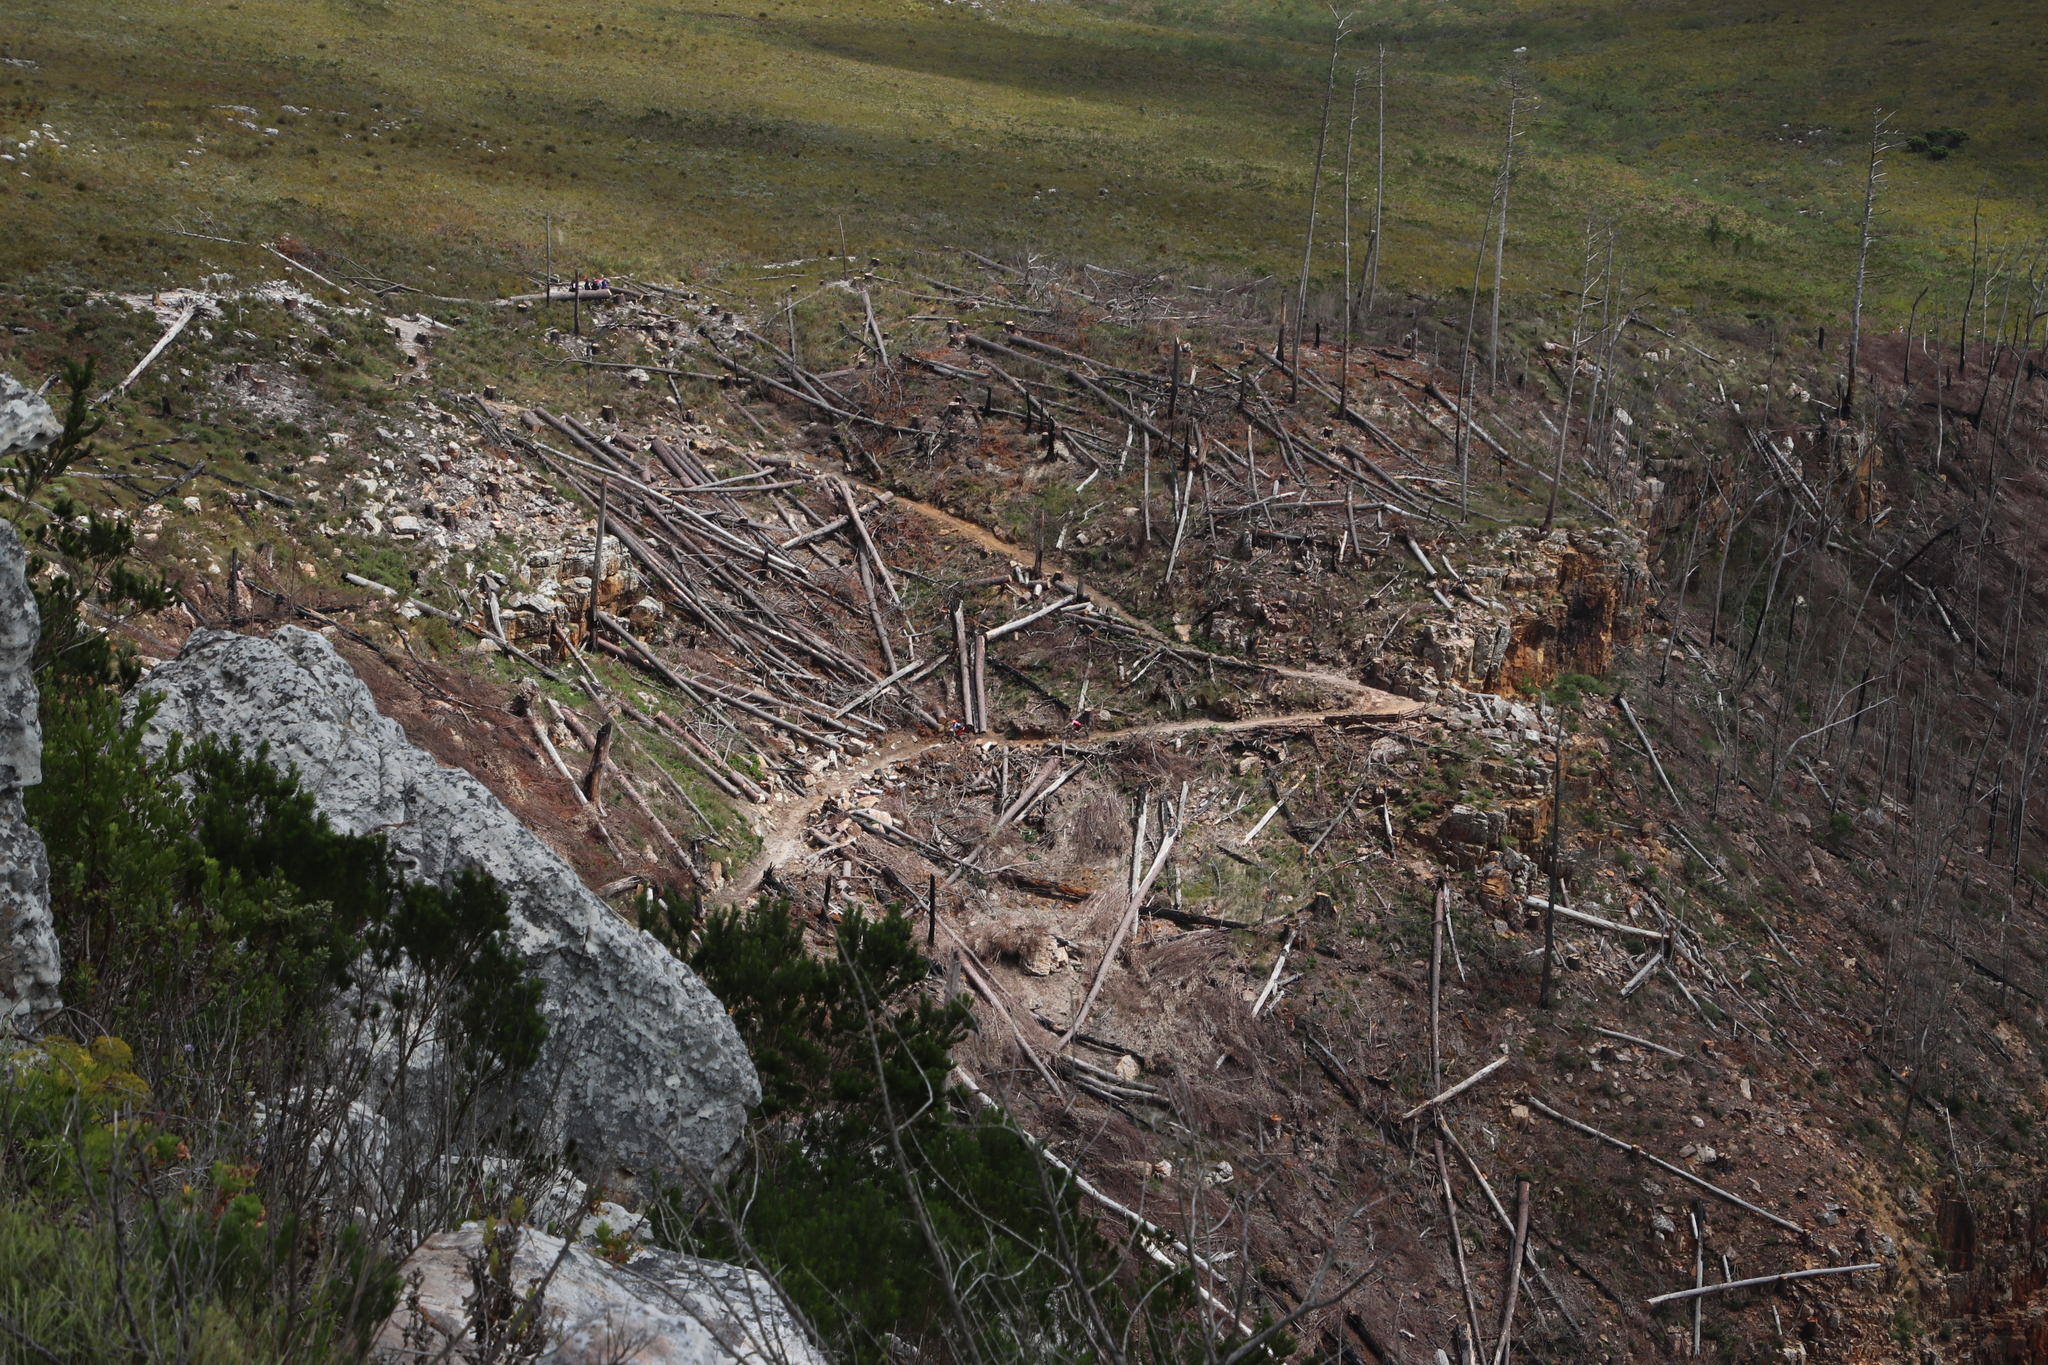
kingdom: Plantae
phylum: Tracheophyta
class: Pinopsida
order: Pinales
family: Pinaceae
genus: Pinus
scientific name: Pinus radiata
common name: Monterey pine
